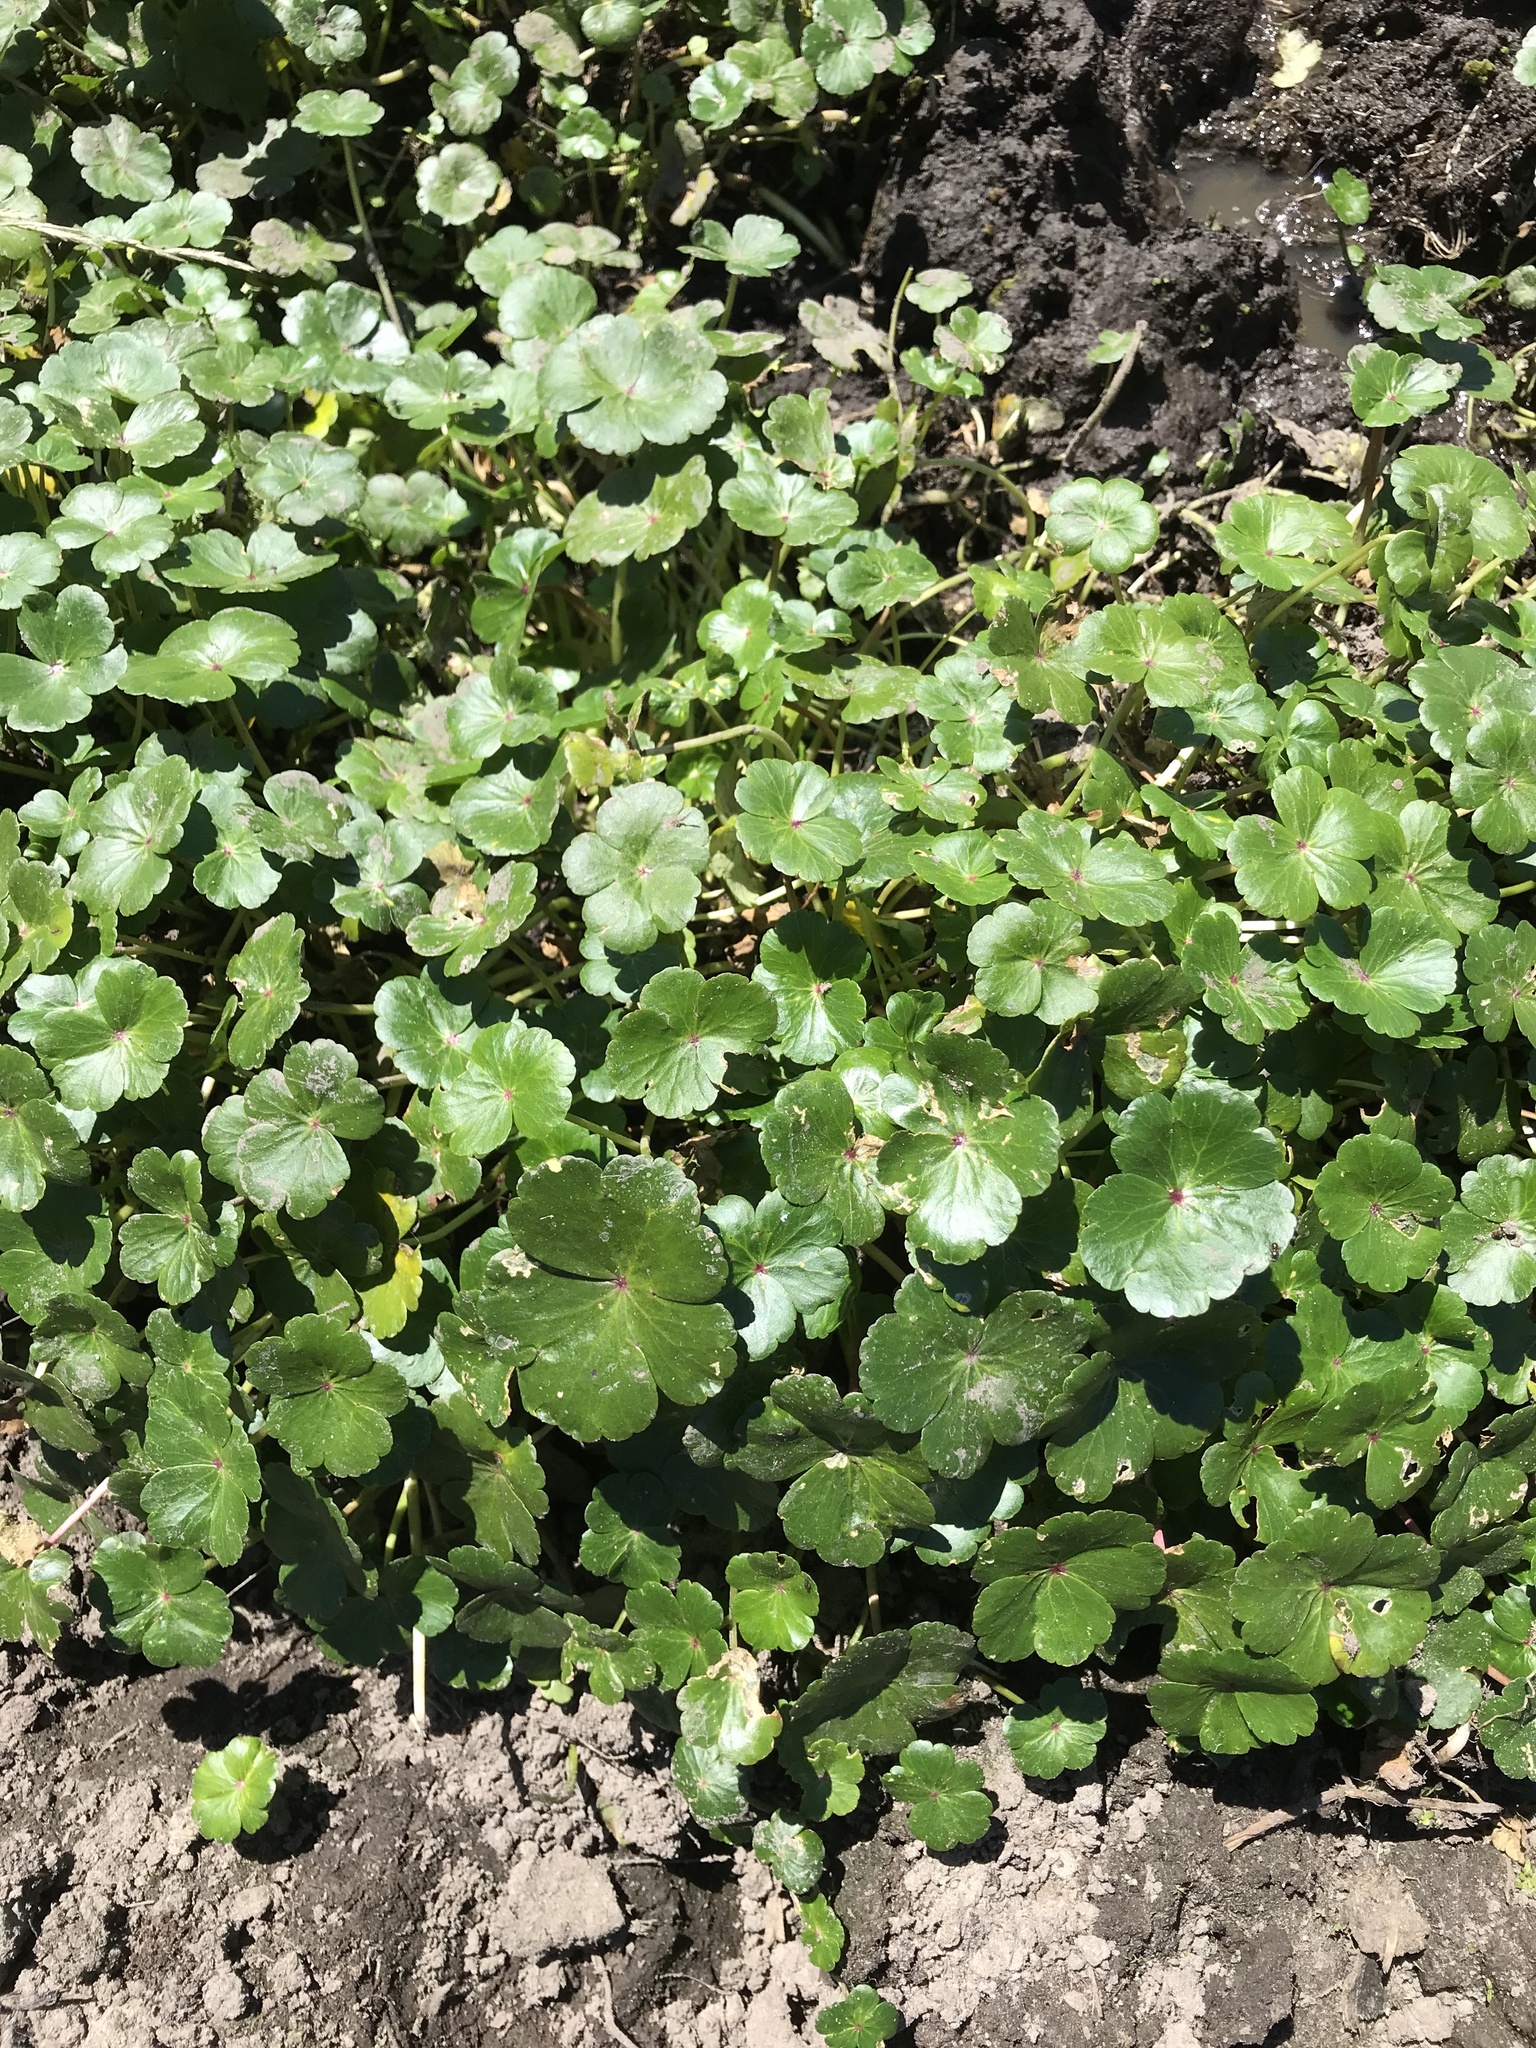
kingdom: Plantae
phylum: Tracheophyta
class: Magnoliopsida
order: Apiales
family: Araliaceae
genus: Hydrocotyle
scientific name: Hydrocotyle ranunculoides
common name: Floating pennywort
